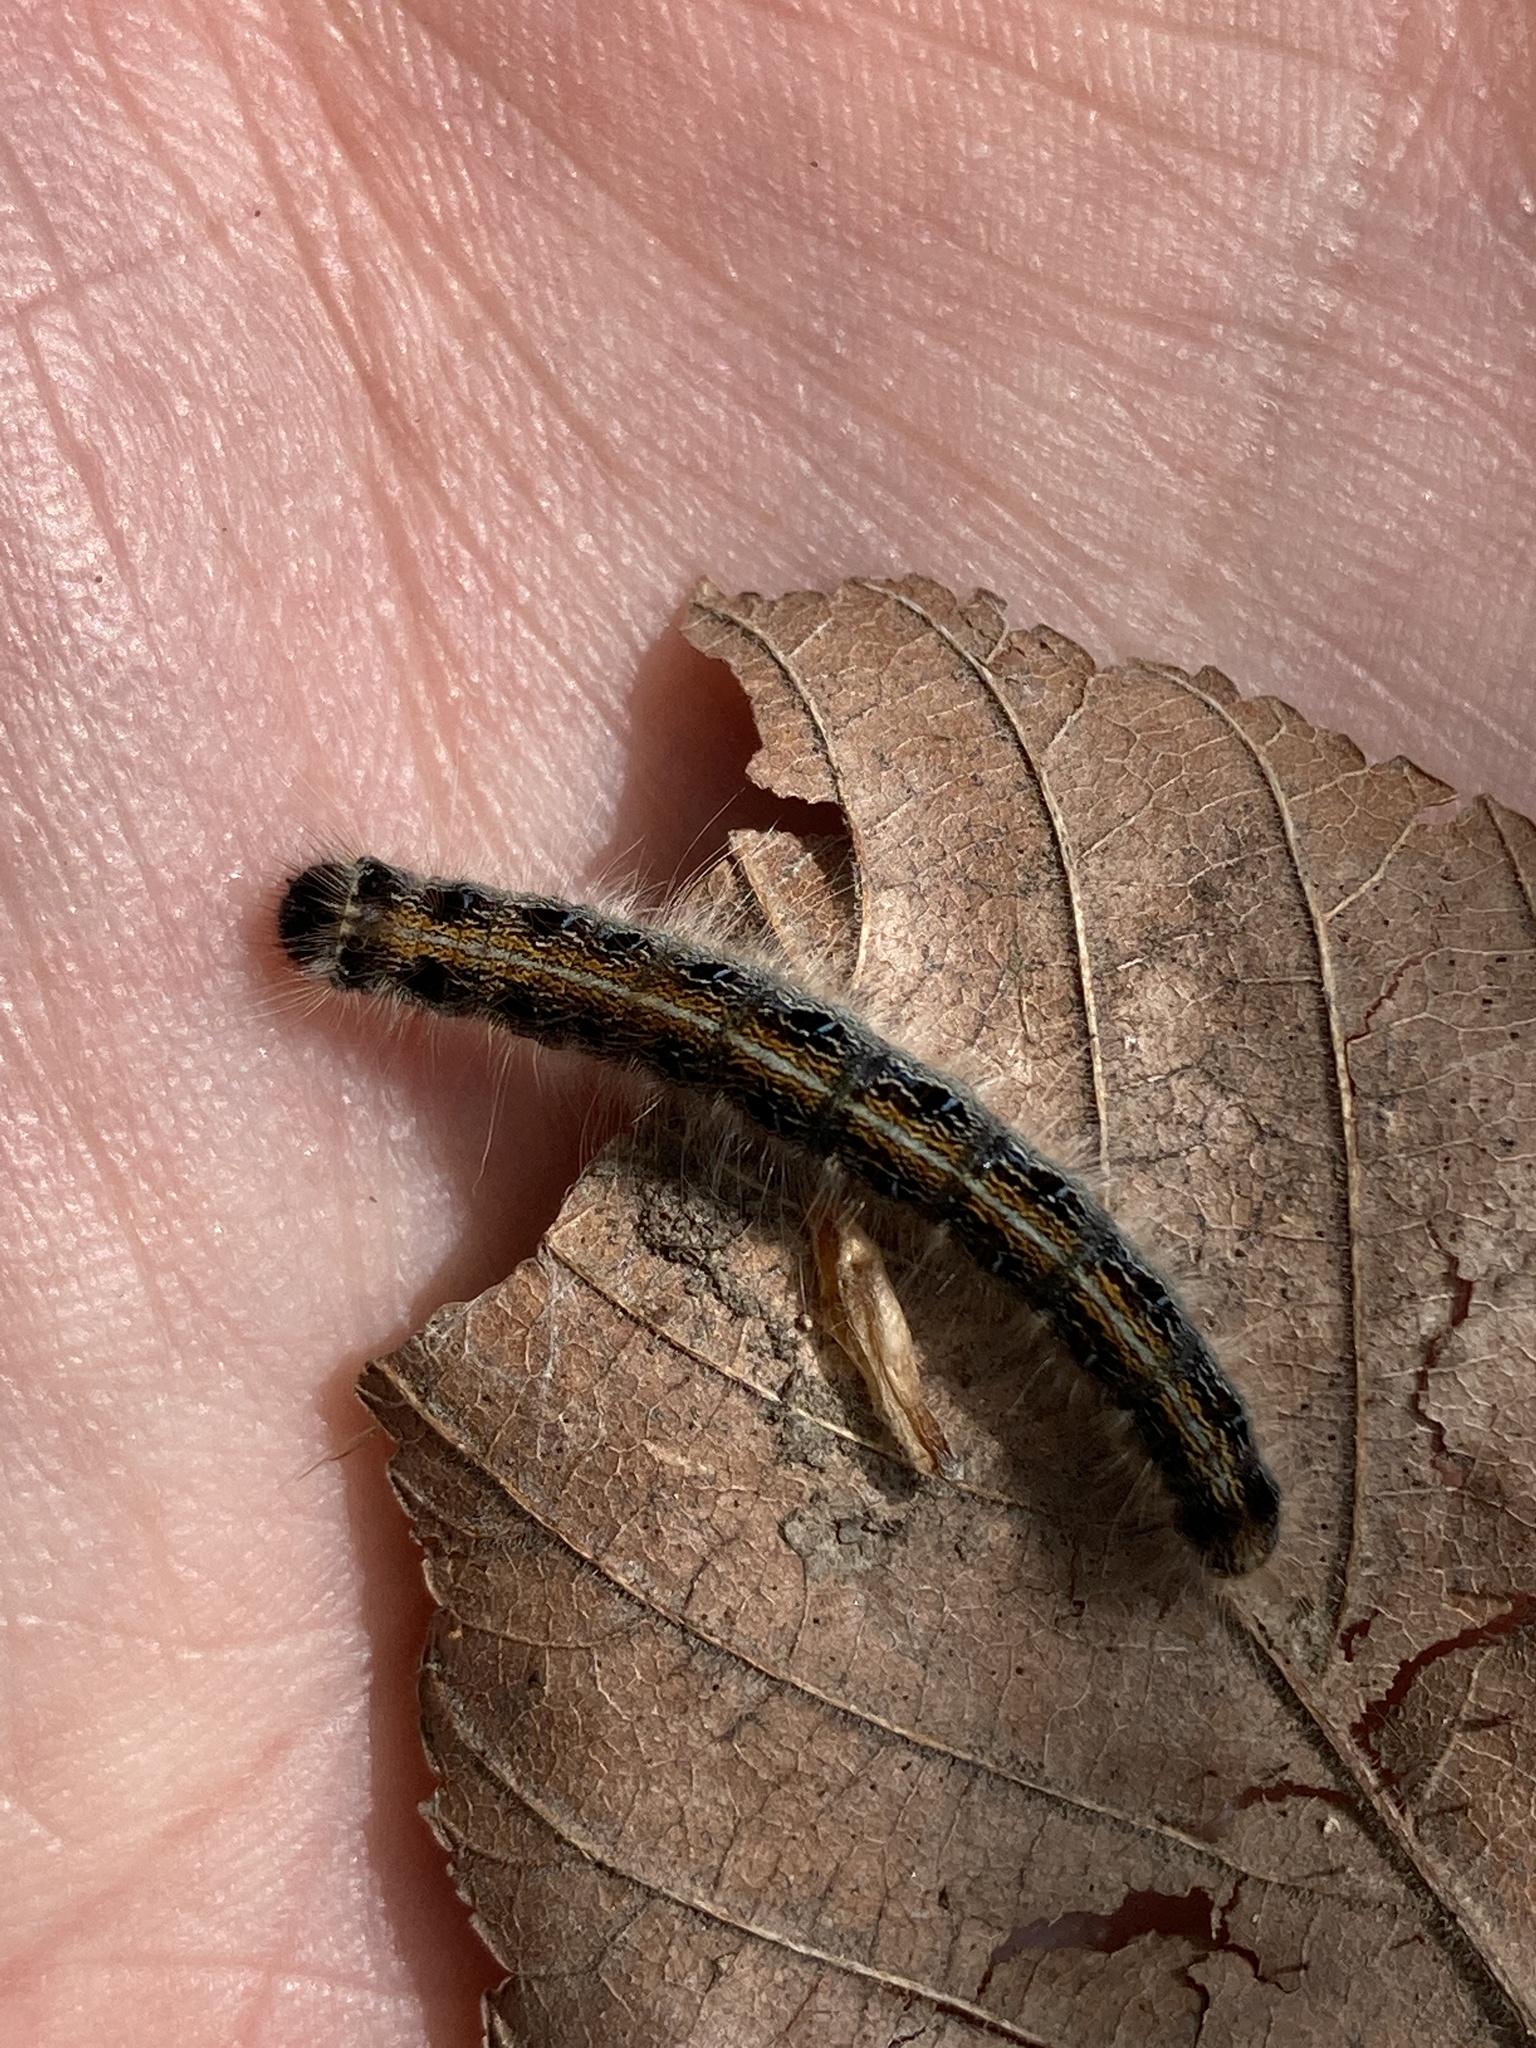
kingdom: Animalia
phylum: Arthropoda
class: Insecta
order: Lepidoptera
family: Lasiocampidae
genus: Malacosoma
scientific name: Malacosoma americana
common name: Eastern tent caterpillar moth
